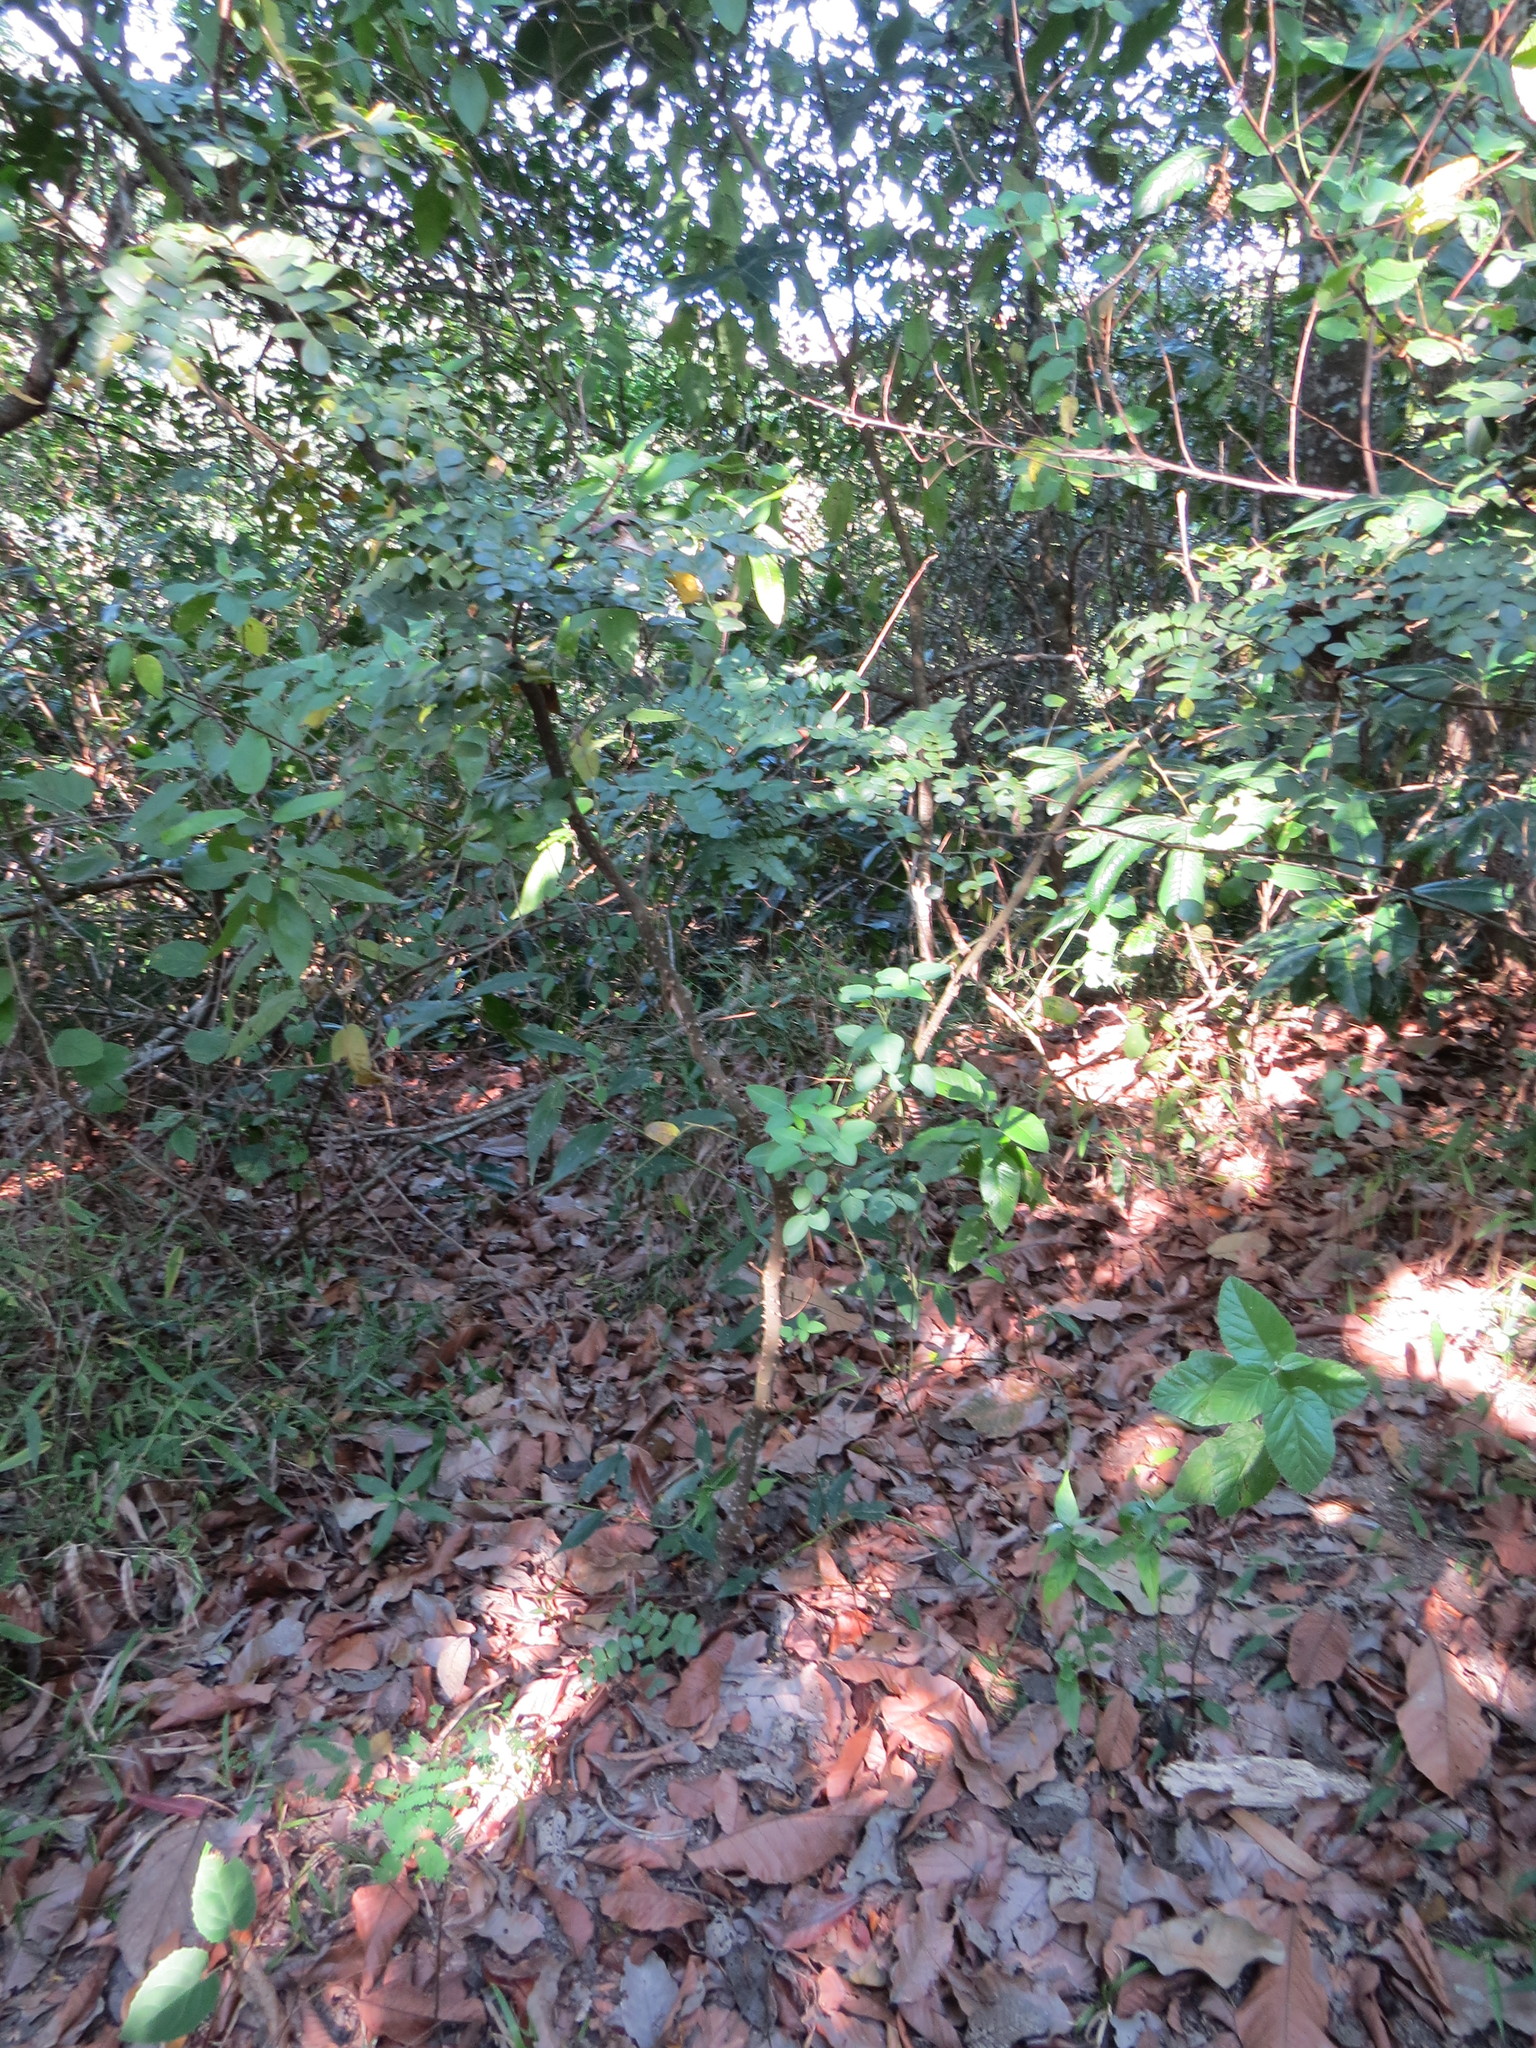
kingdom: Plantae
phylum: Tracheophyta
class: Magnoliopsida
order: Fabales
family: Fabaceae
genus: Paubrasilia
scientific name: Paubrasilia echinata
